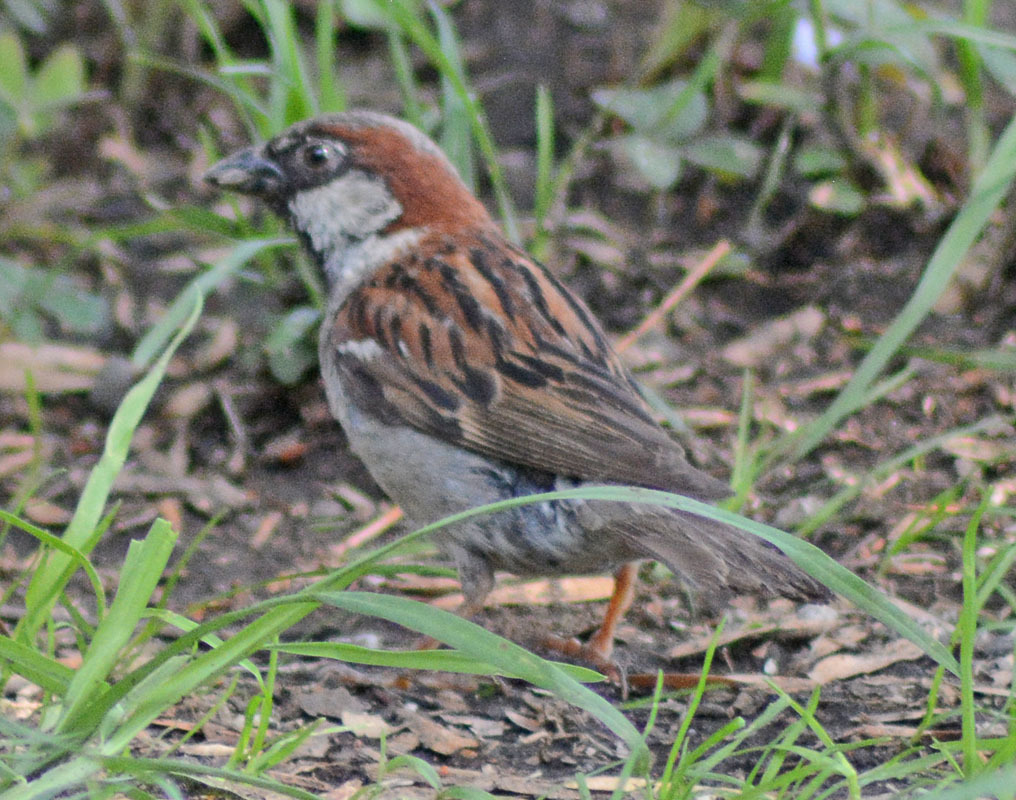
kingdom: Animalia
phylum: Chordata
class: Aves
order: Passeriformes
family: Passeridae
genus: Passer
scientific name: Passer domesticus
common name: House sparrow
